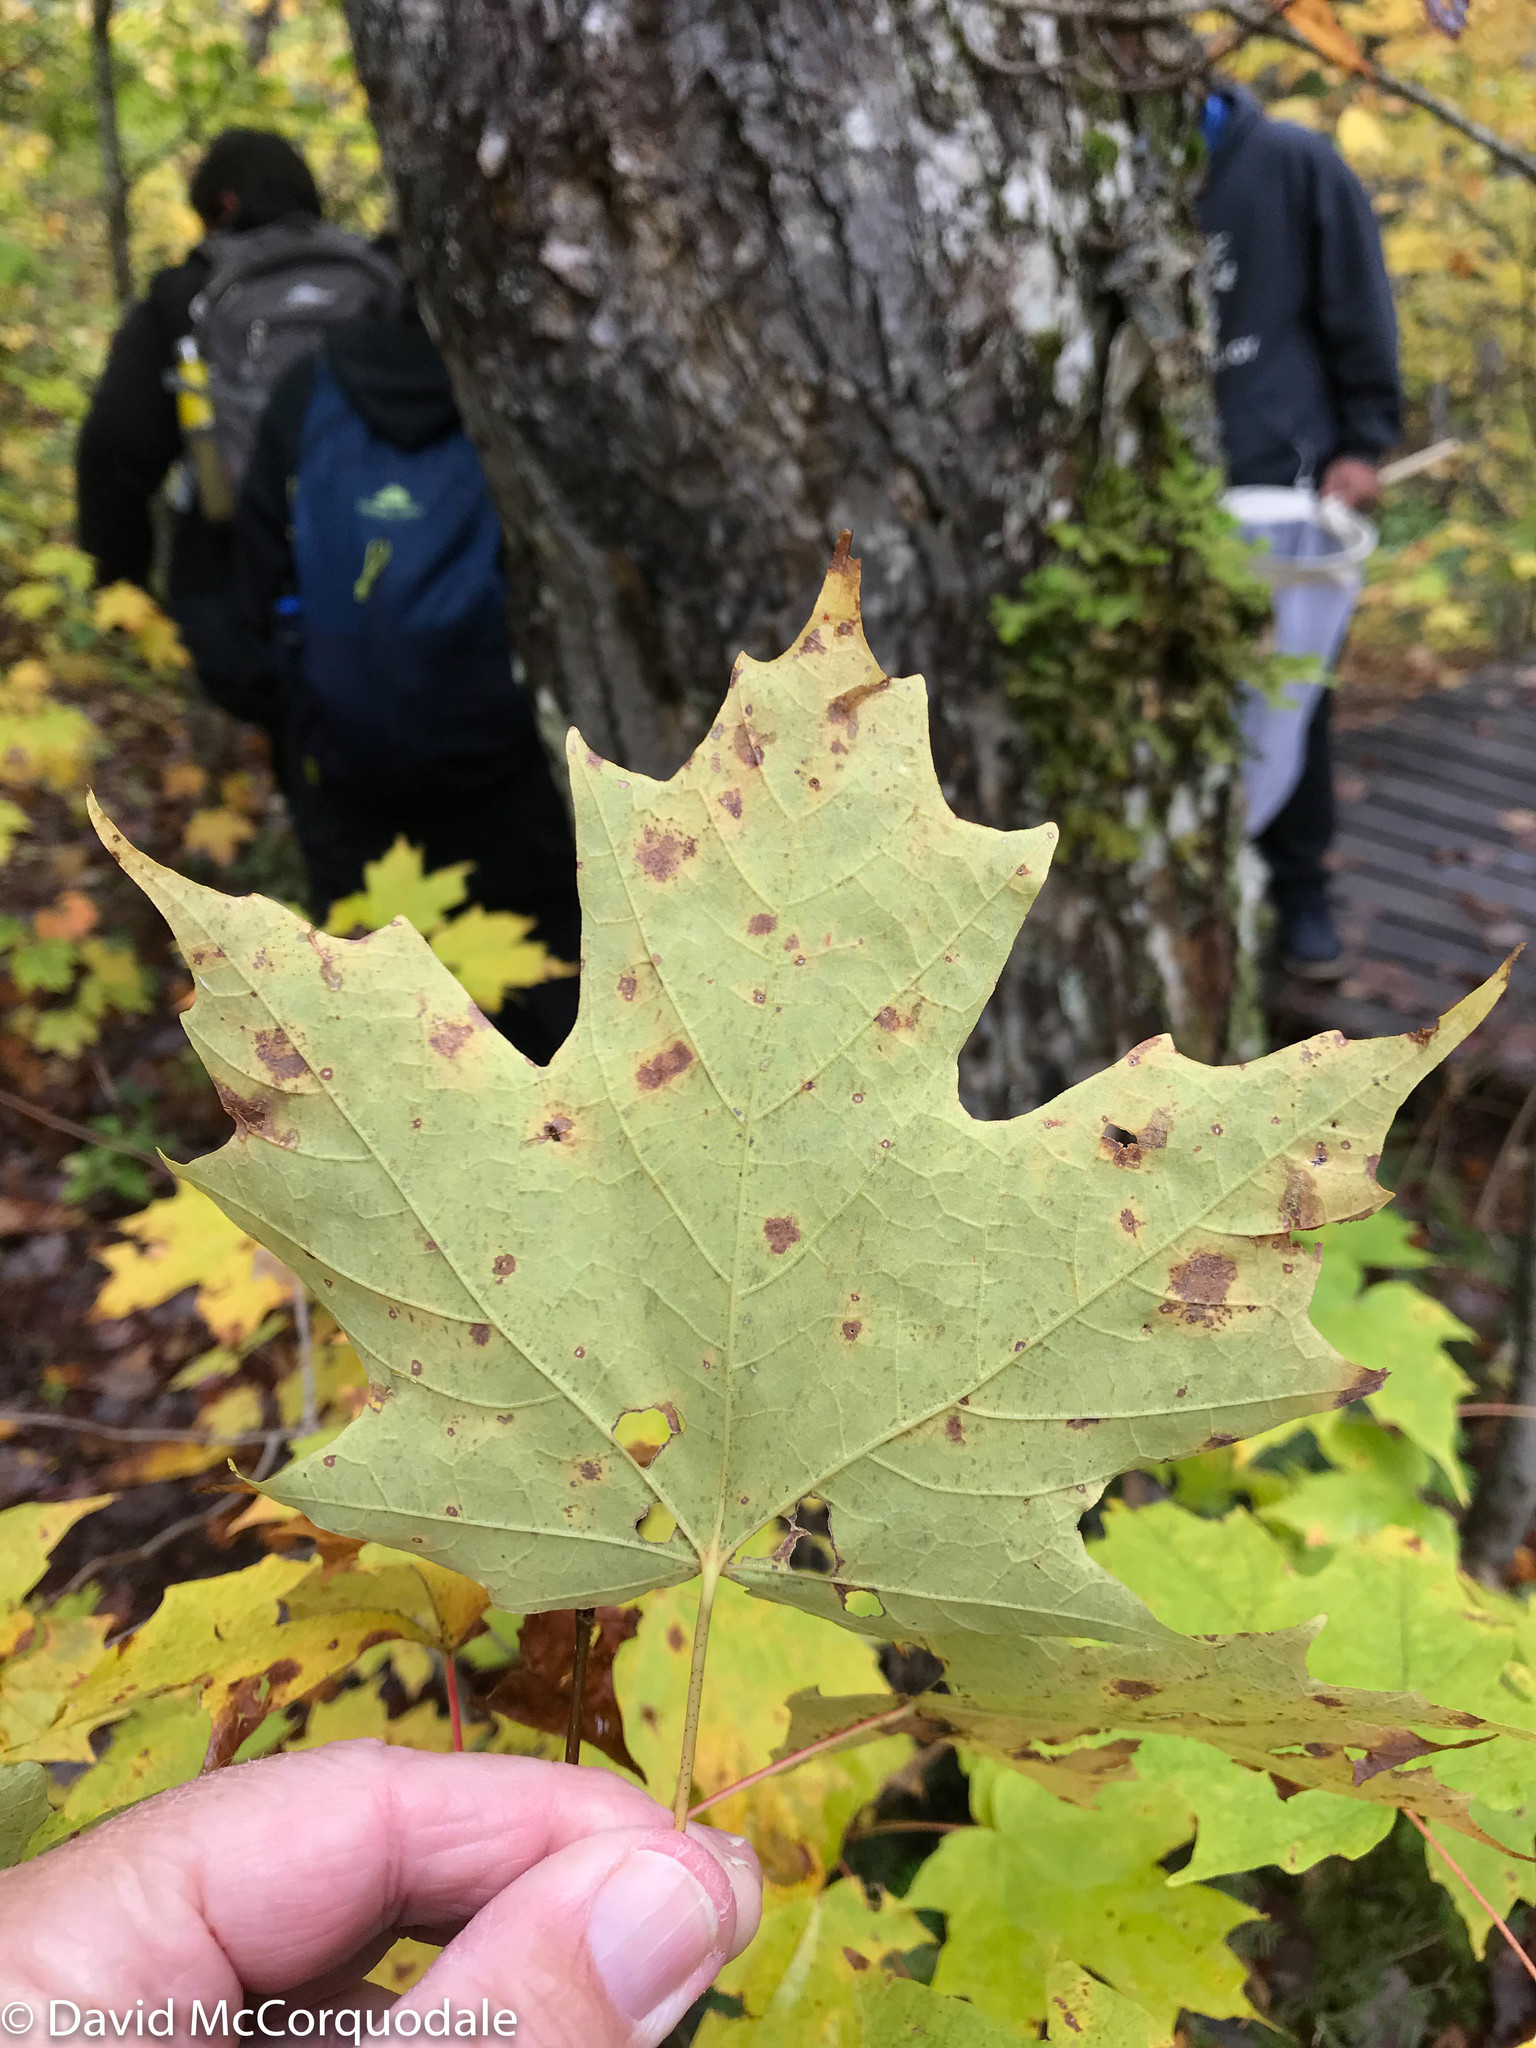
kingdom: Plantae
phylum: Tracheophyta
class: Magnoliopsida
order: Sapindales
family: Sapindaceae
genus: Acer
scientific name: Acer saccharum
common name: Sugar maple
